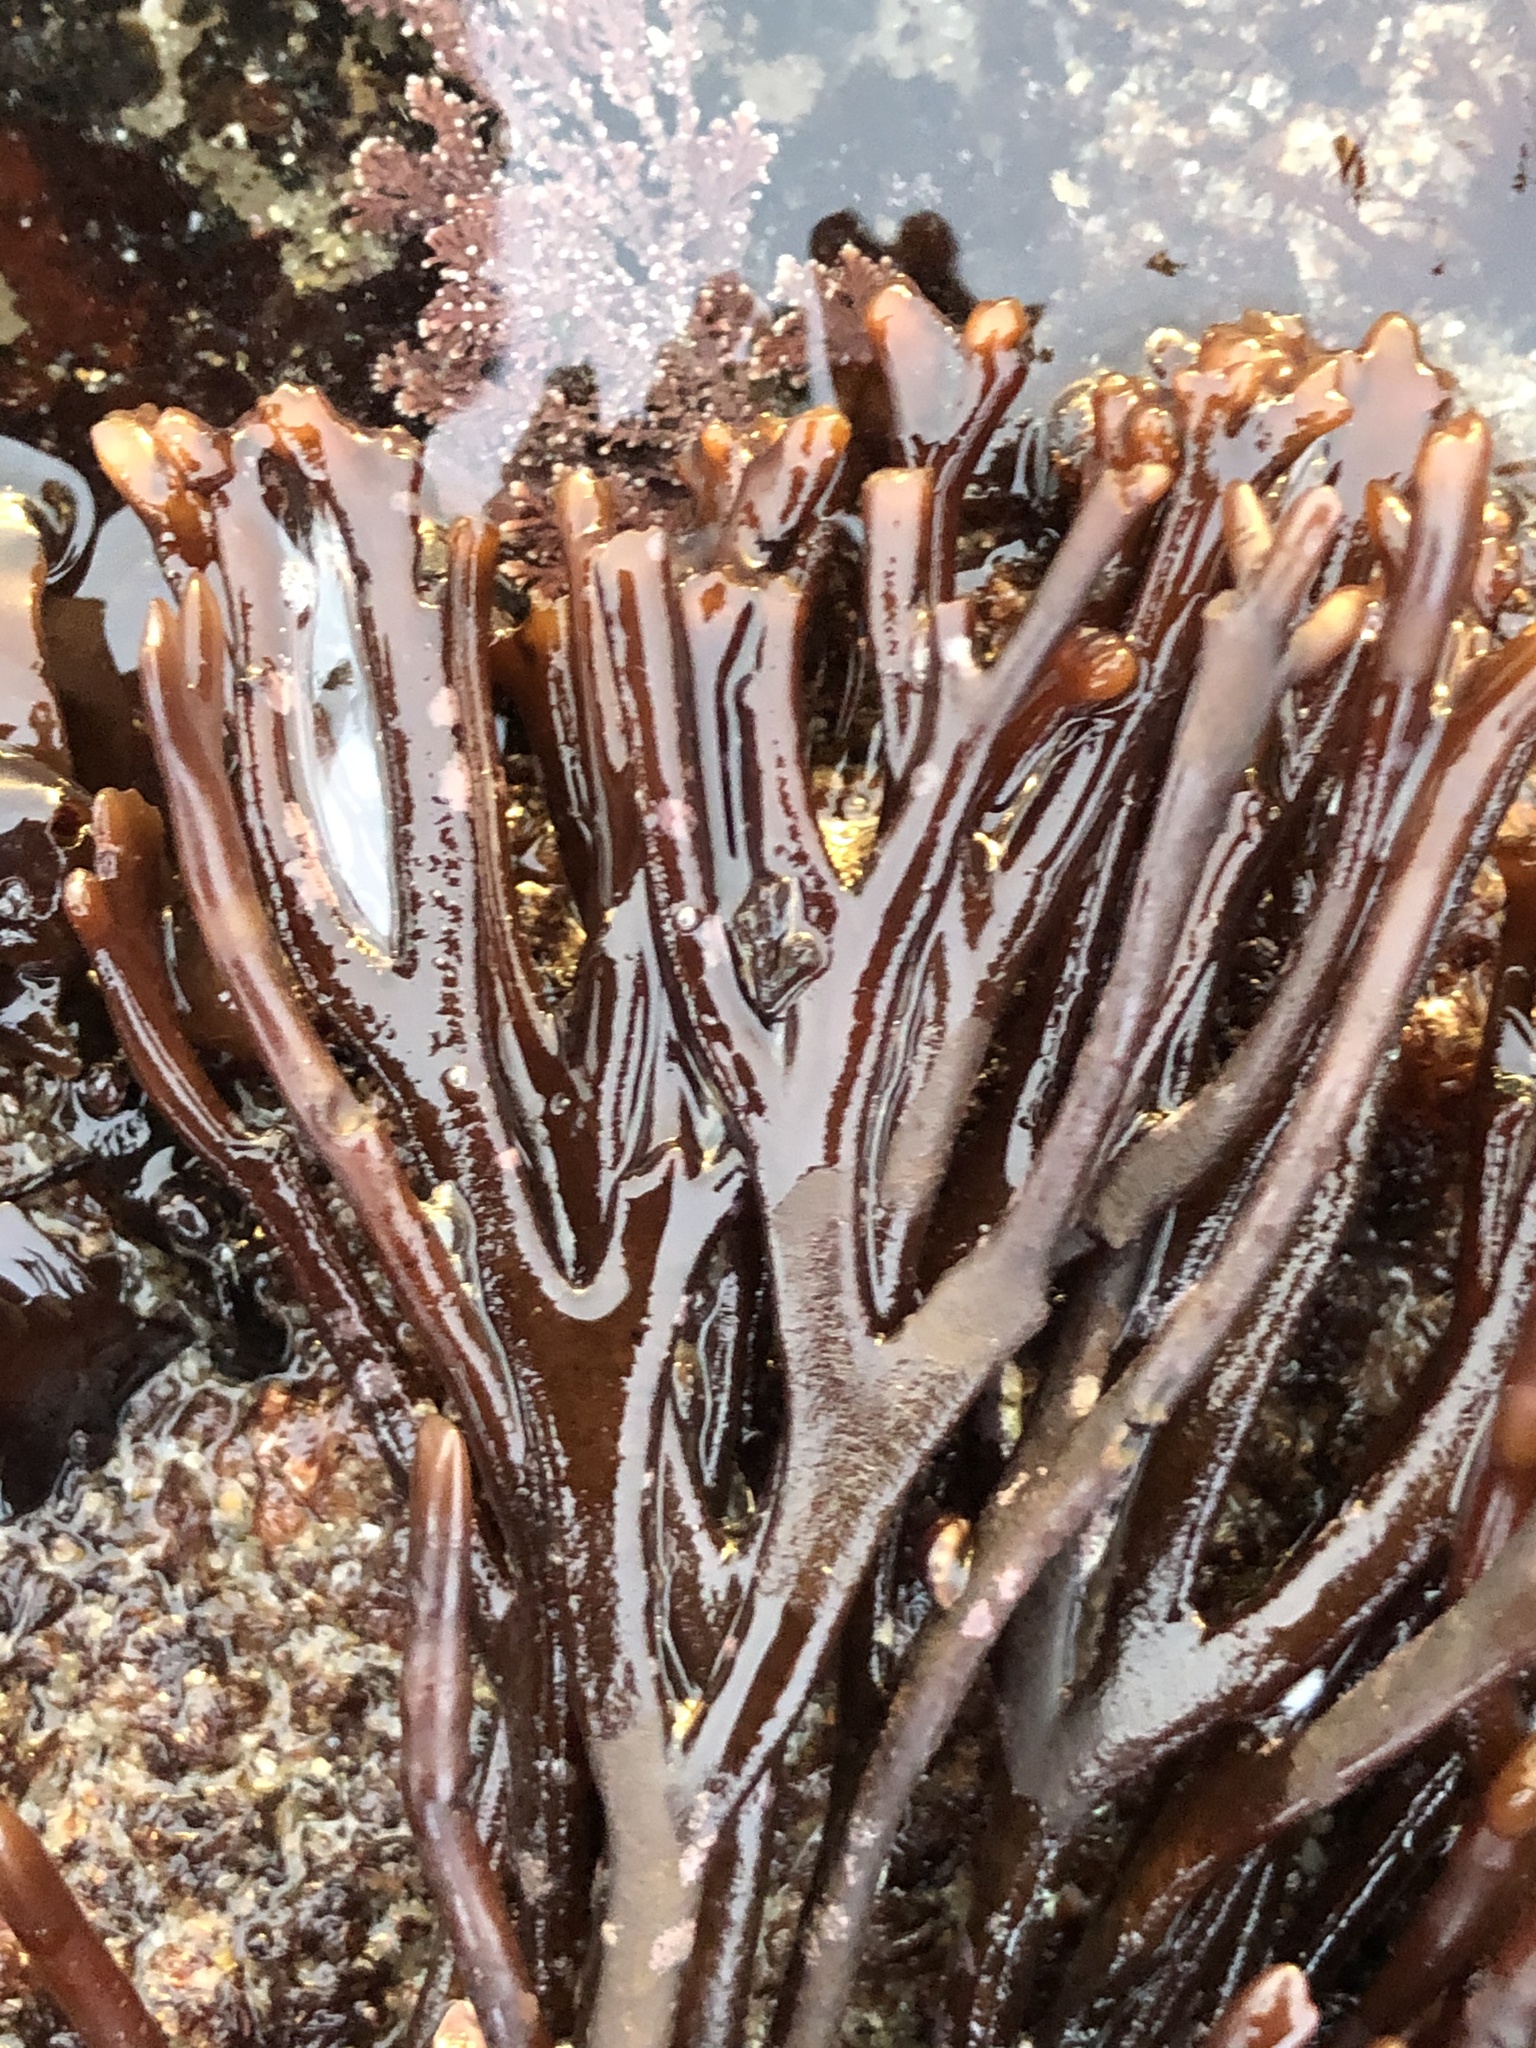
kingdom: Plantae
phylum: Rhodophyta
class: Florideophyceae
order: Gigartinales
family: Phyllophoraceae
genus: Ahnfeltiopsis
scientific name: Ahnfeltiopsis linearis
